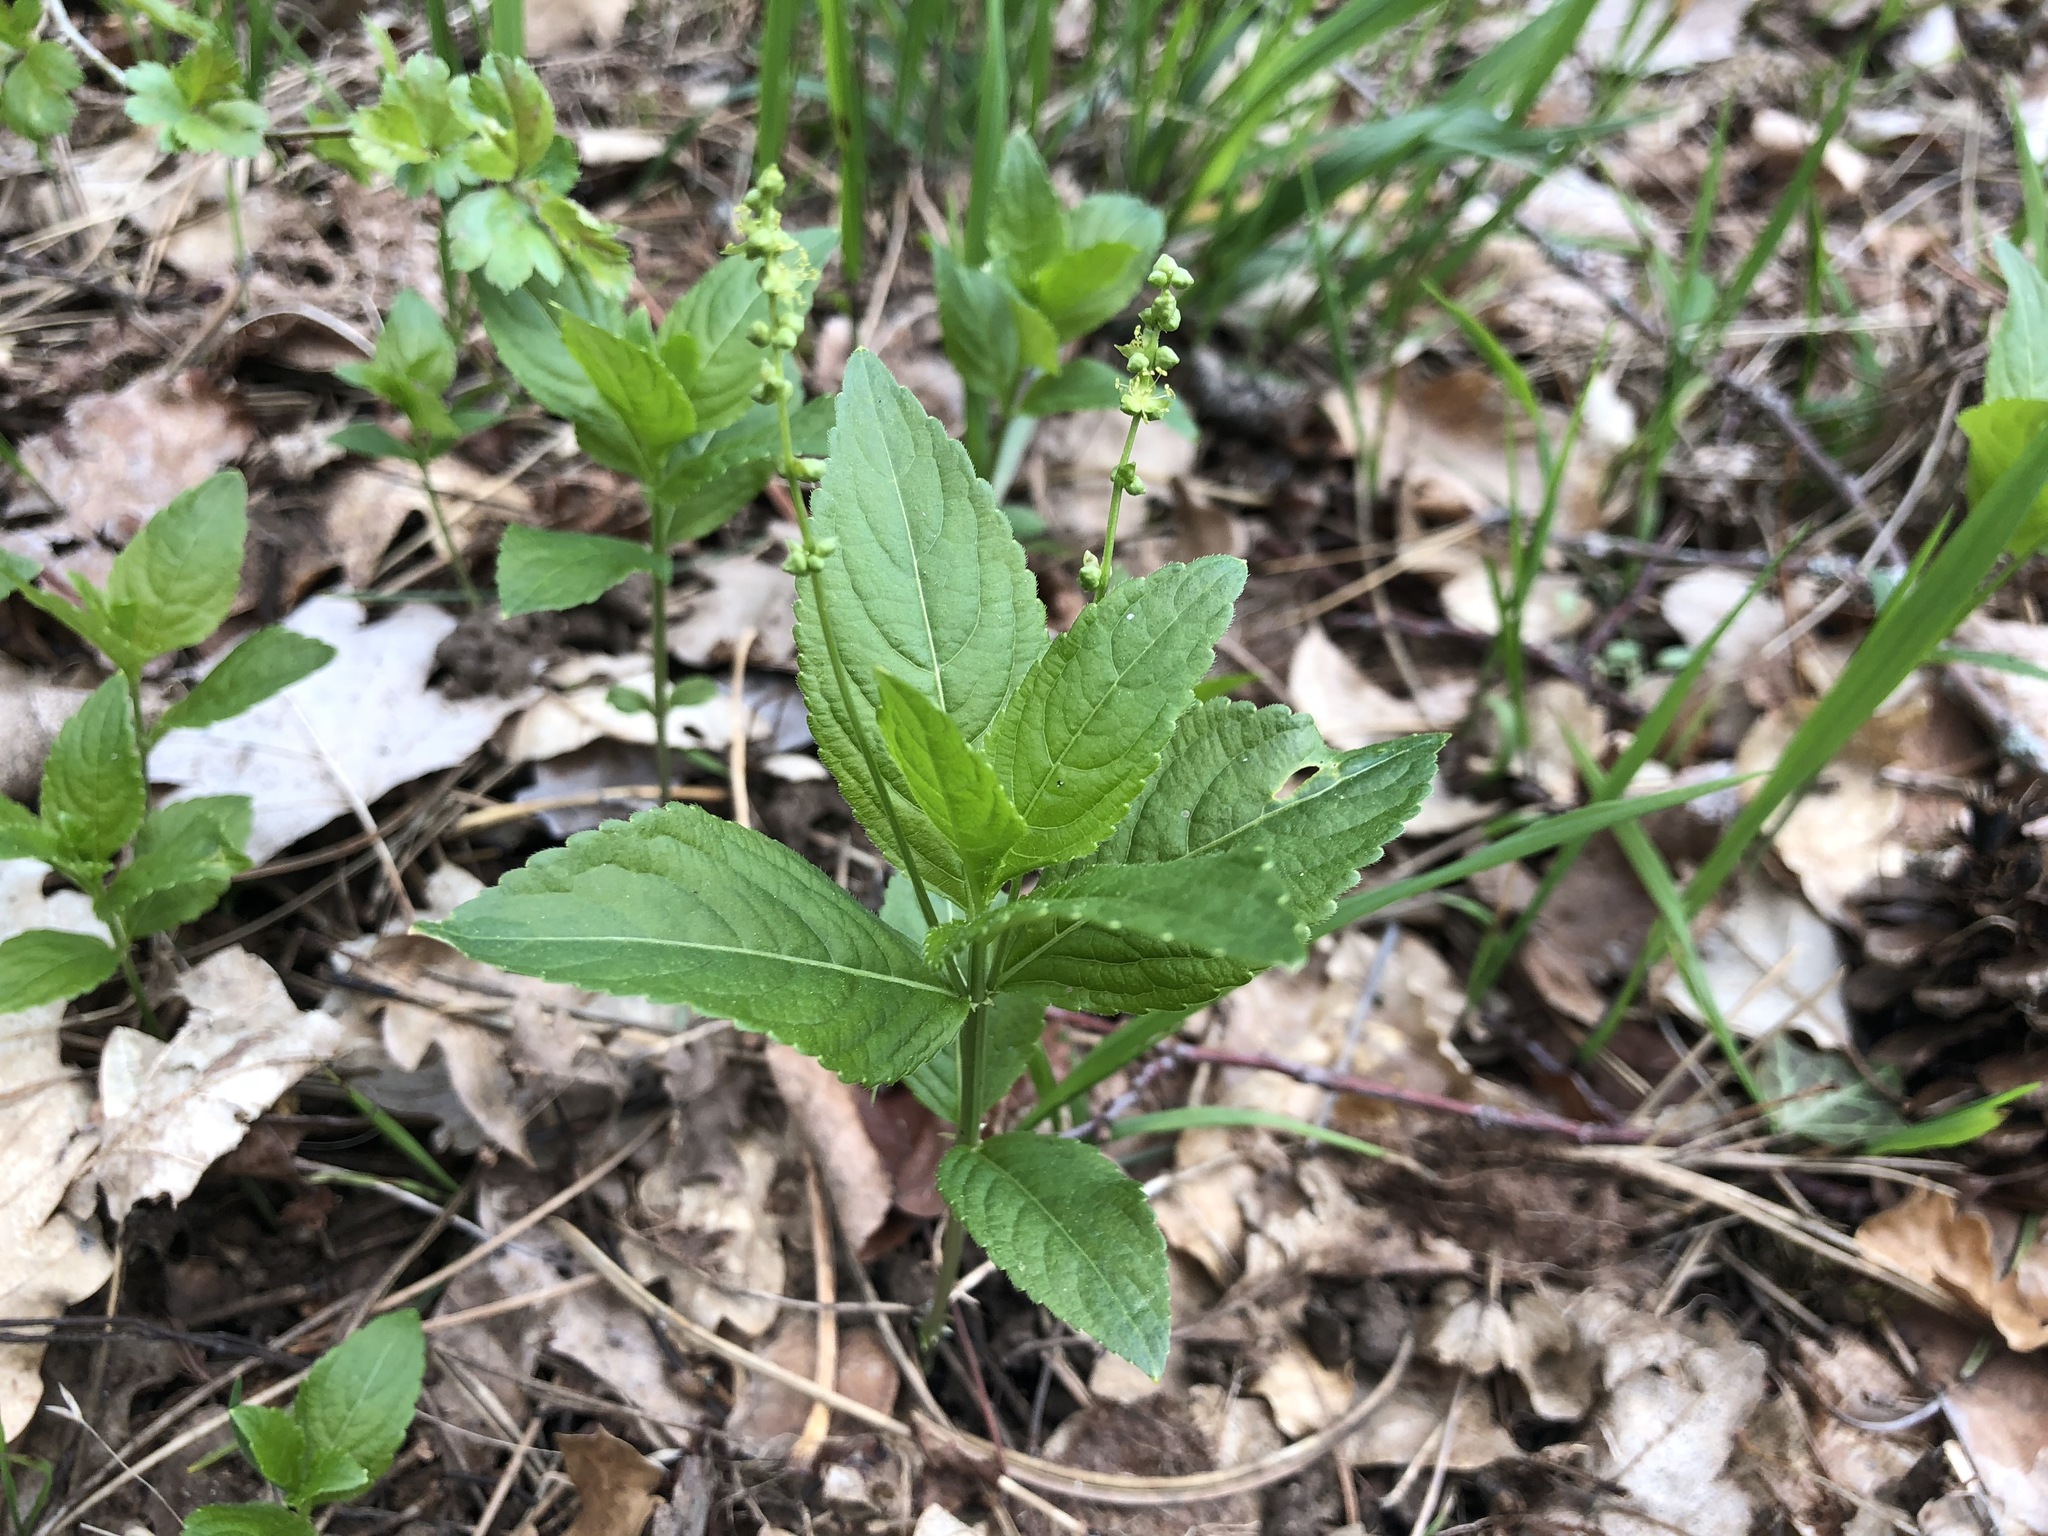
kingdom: Plantae
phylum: Tracheophyta
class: Magnoliopsida
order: Malpighiales
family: Euphorbiaceae
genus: Mercurialis
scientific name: Mercurialis perennis
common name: Dog mercury
